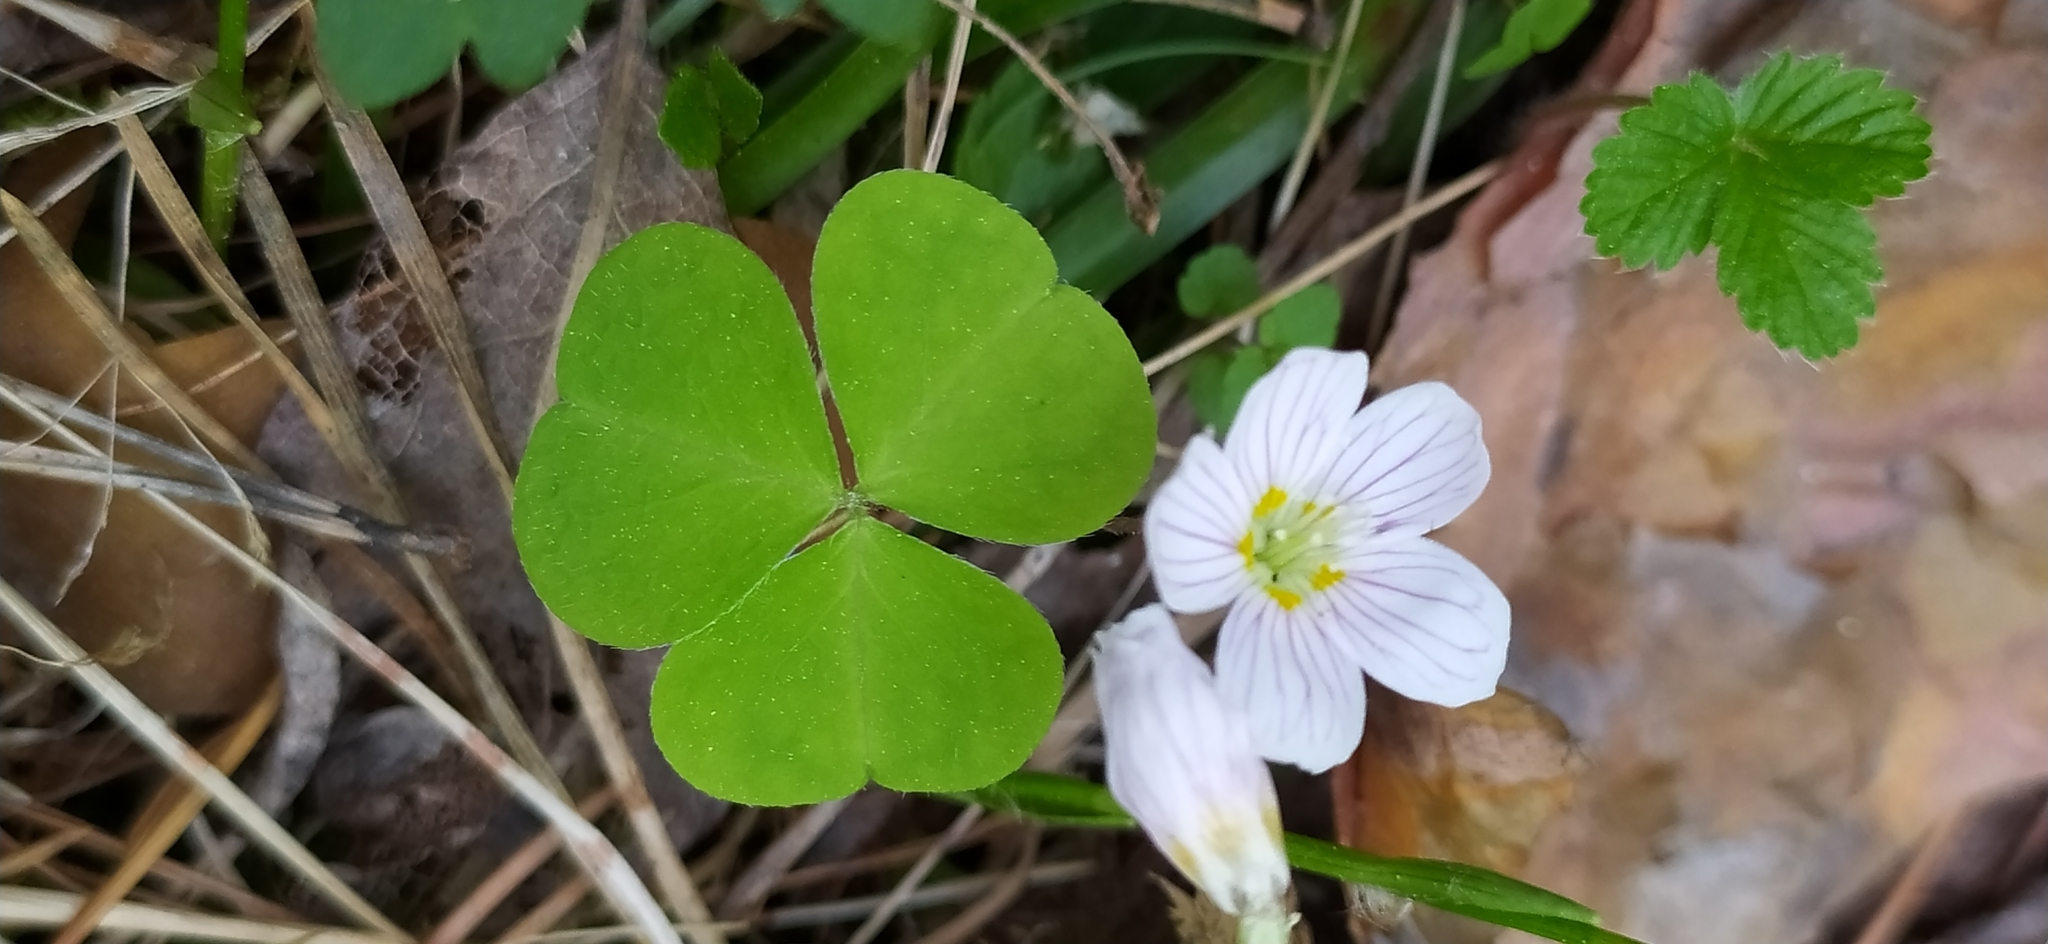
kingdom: Plantae
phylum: Tracheophyta
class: Magnoliopsida
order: Oxalidales
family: Oxalidaceae
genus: Oxalis
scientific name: Oxalis acetosella
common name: Wood-sorrel
